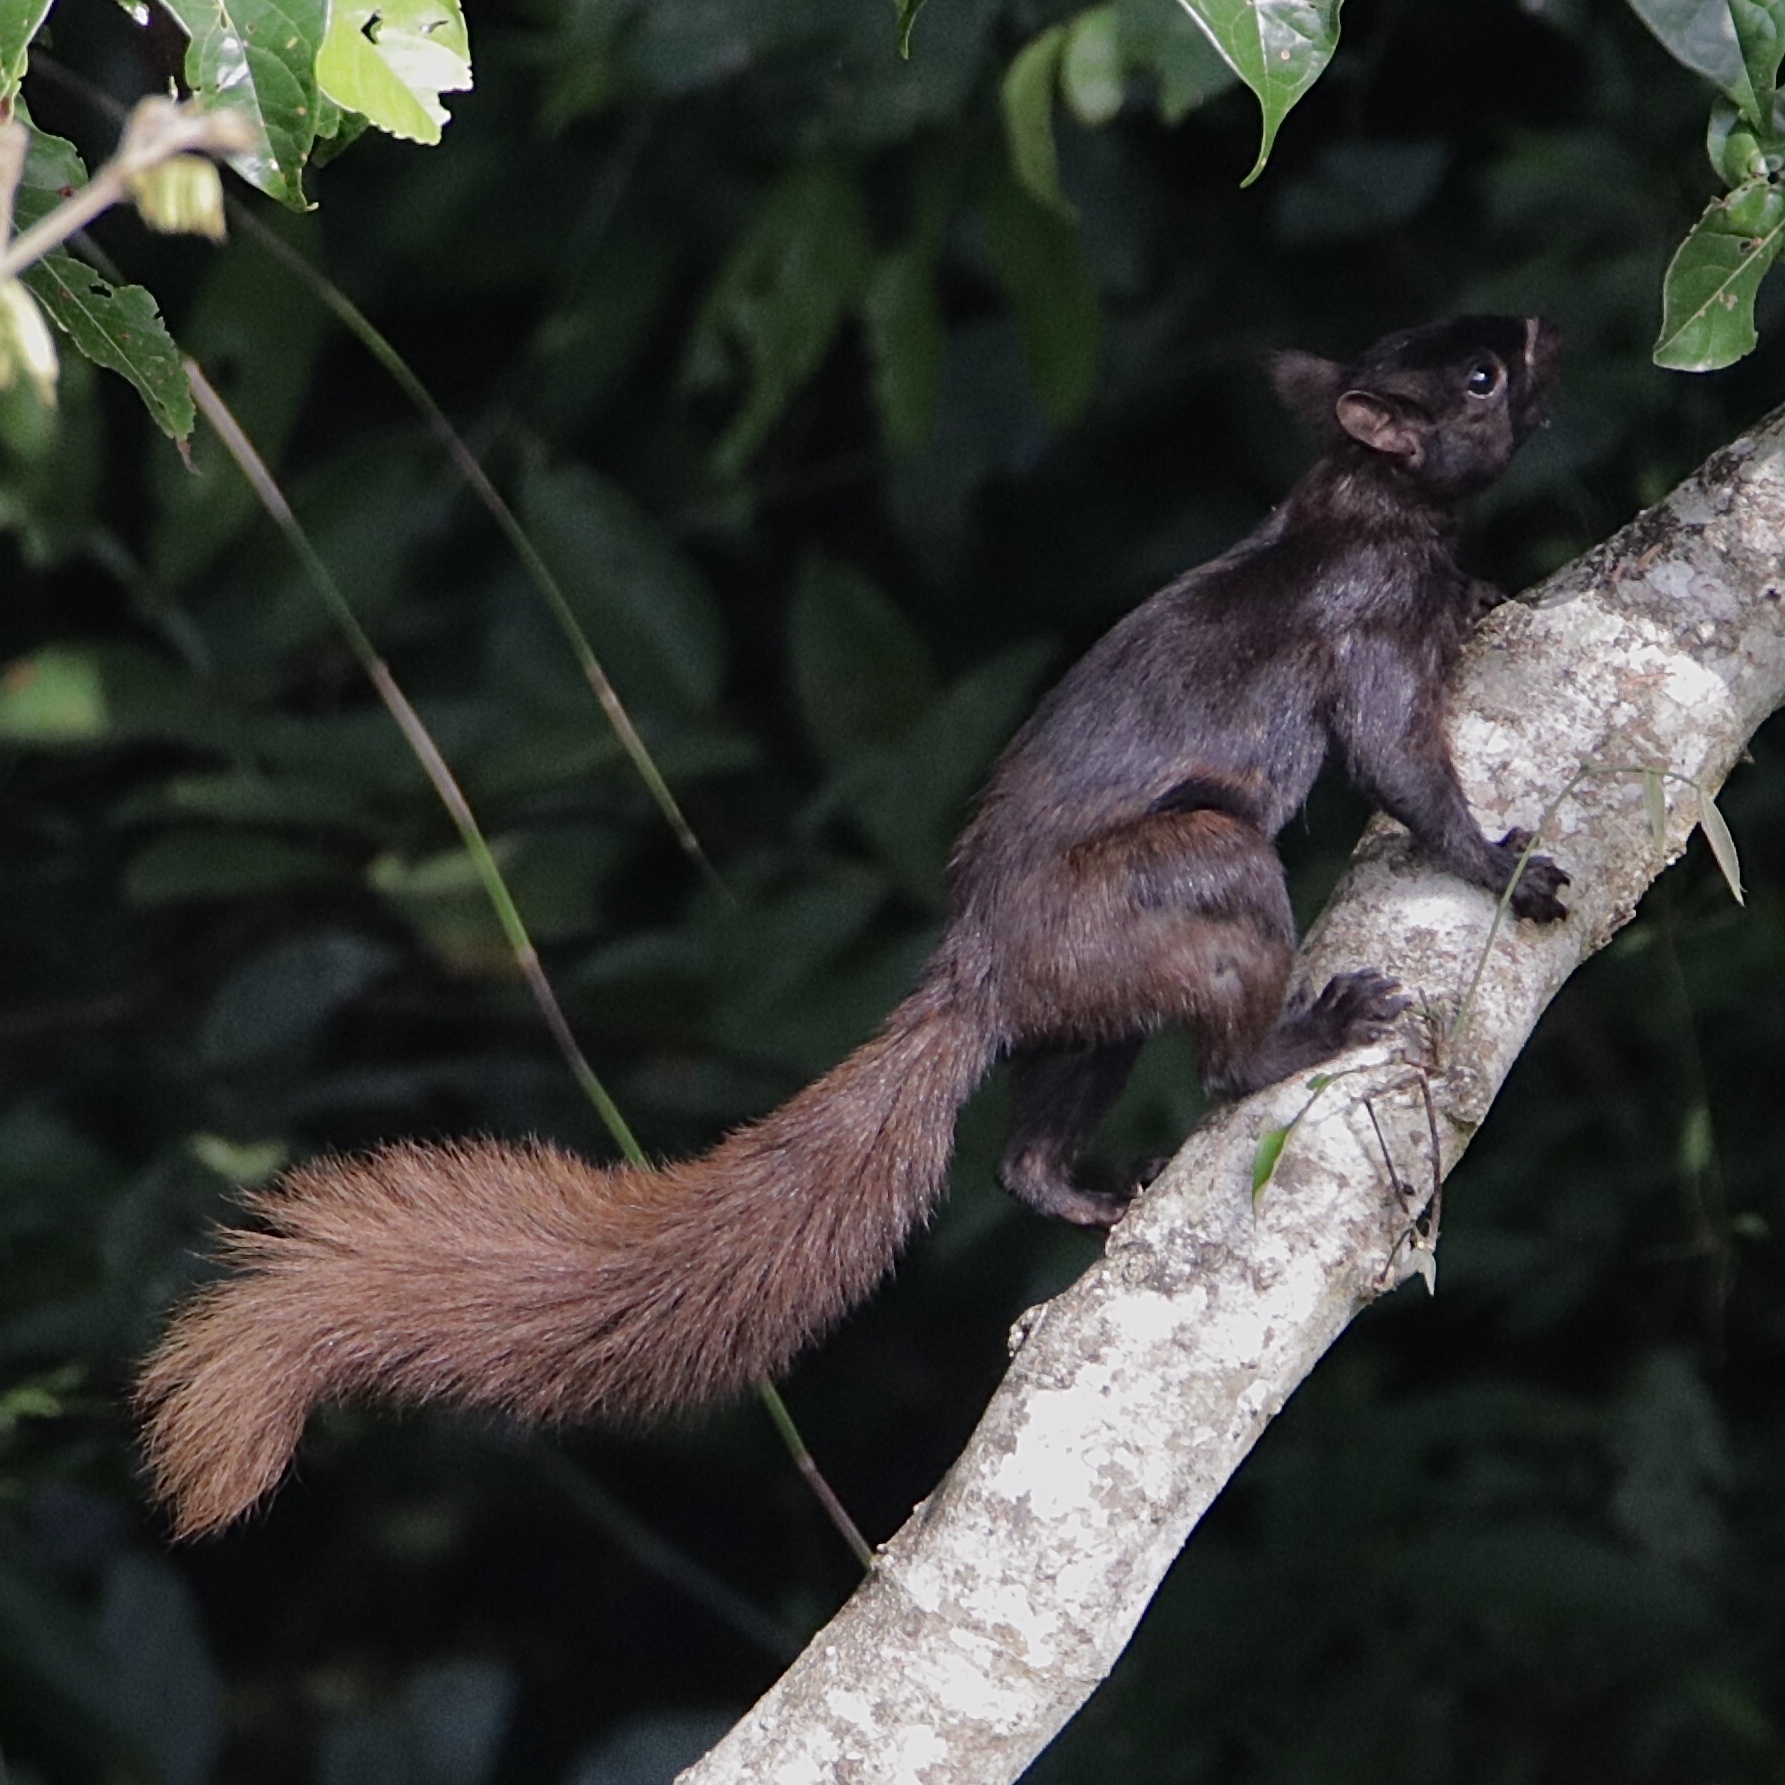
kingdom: Animalia
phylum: Chordata
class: Mammalia
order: Rodentia
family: Sciuridae
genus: Sciurus
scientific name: Sciurus granatensis
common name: Red-tailed squirrel
